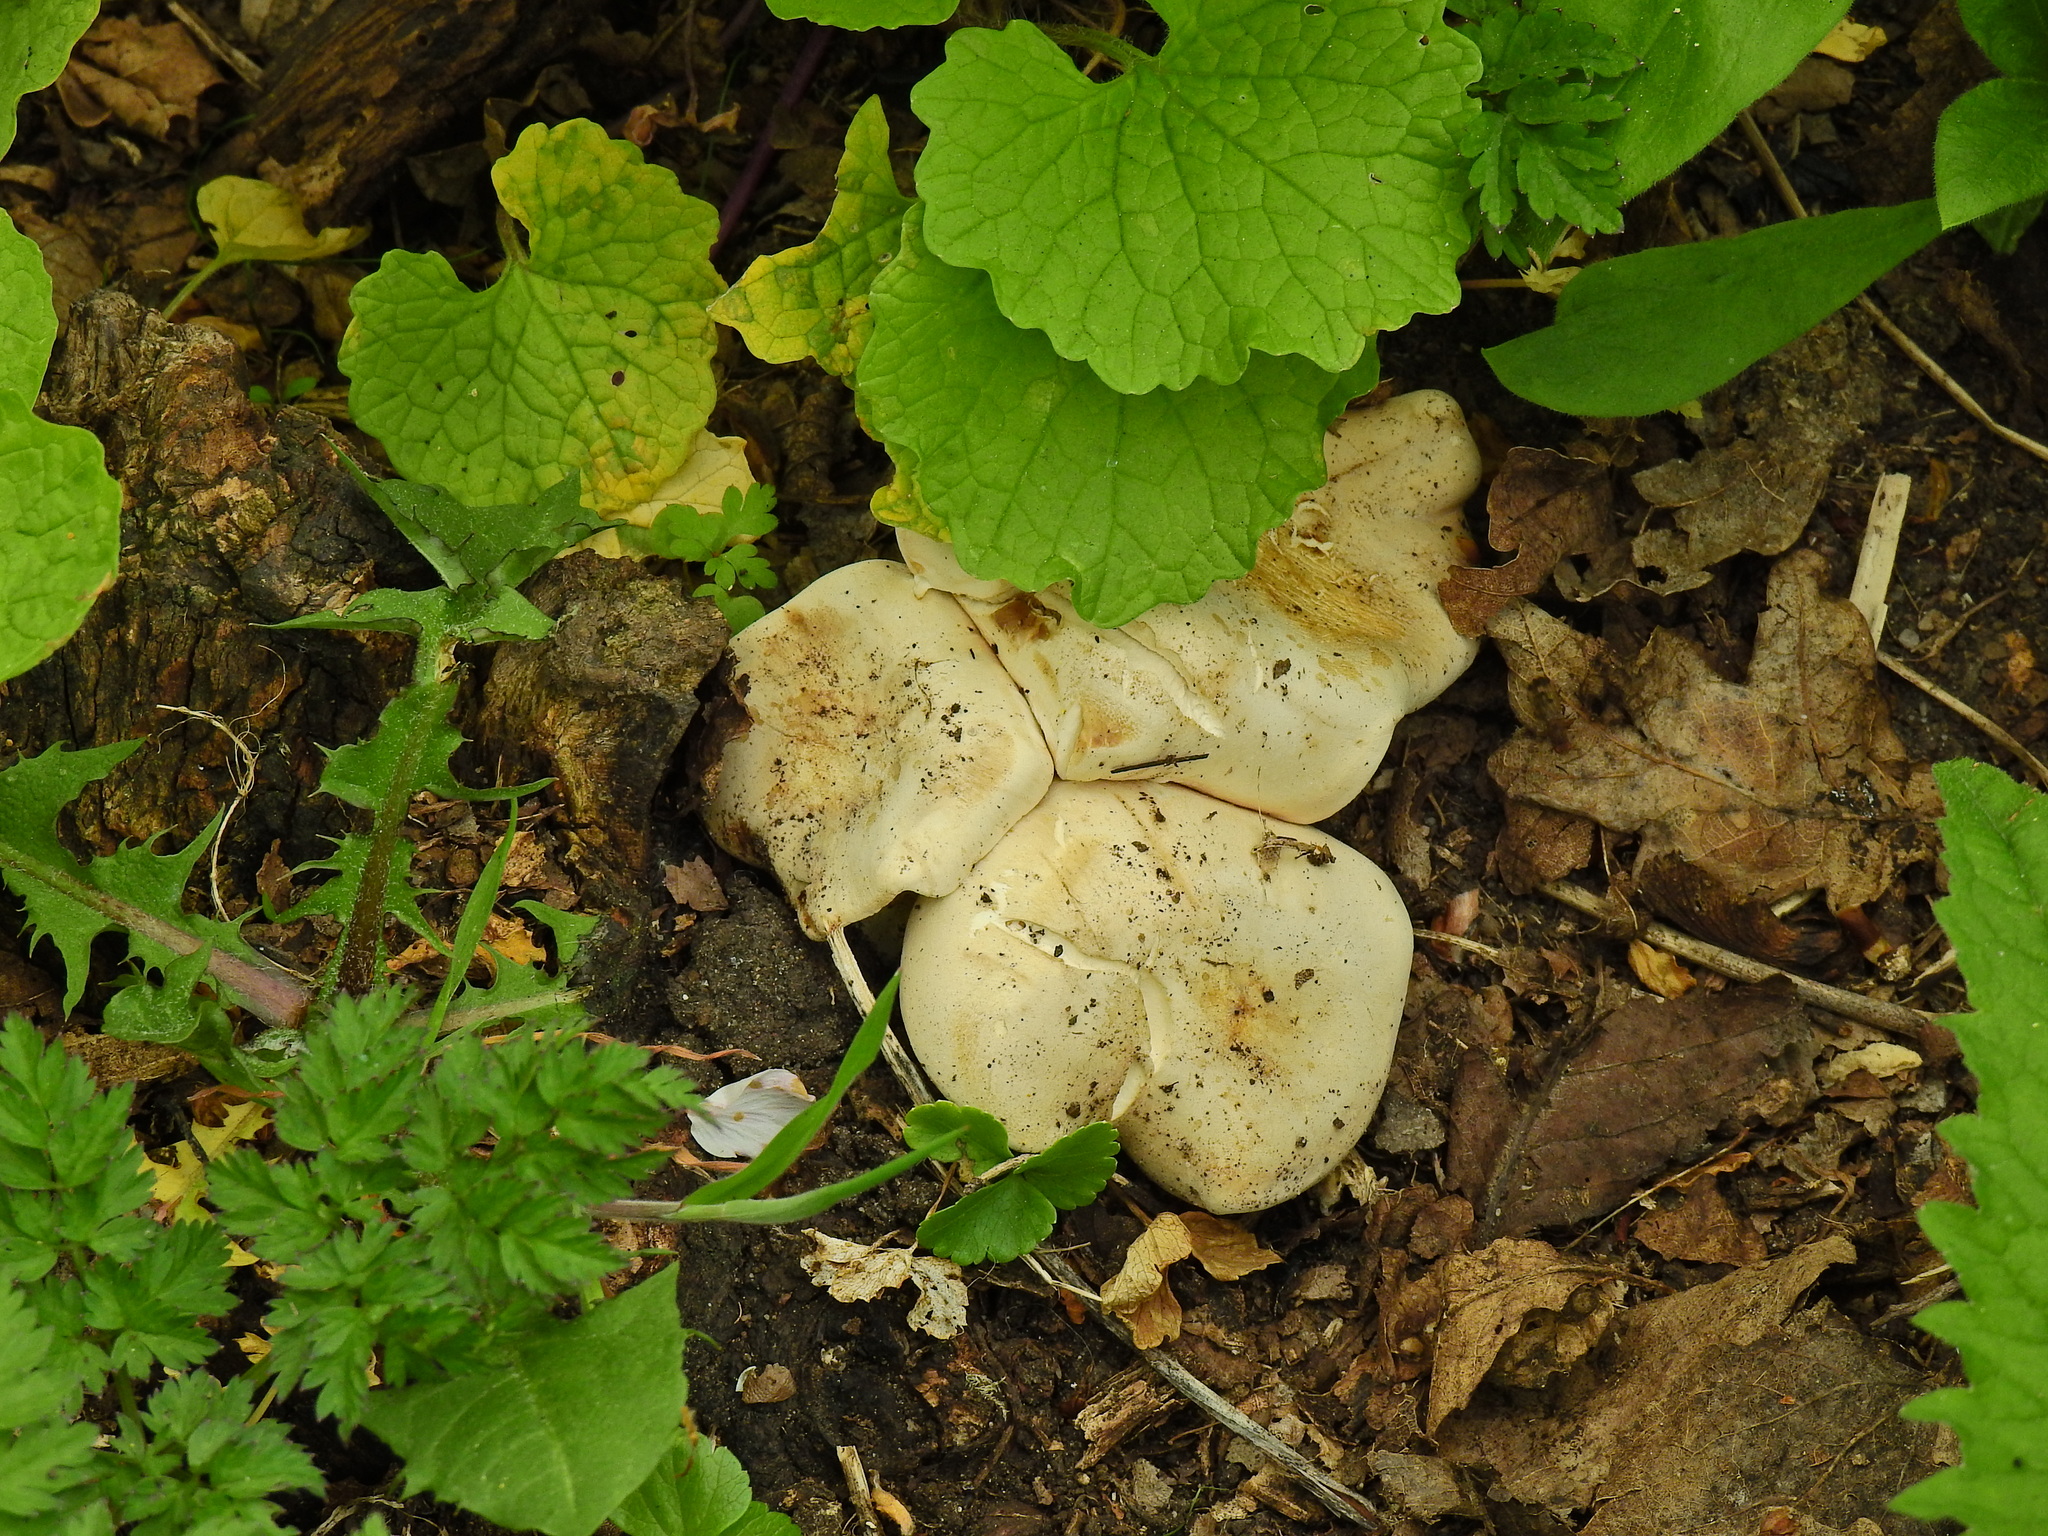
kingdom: Fungi
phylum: Basidiomycota
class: Agaricomycetes
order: Agaricales
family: Lyophyllaceae
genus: Calocybe
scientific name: Calocybe gambosa
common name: St. george's mushroom
